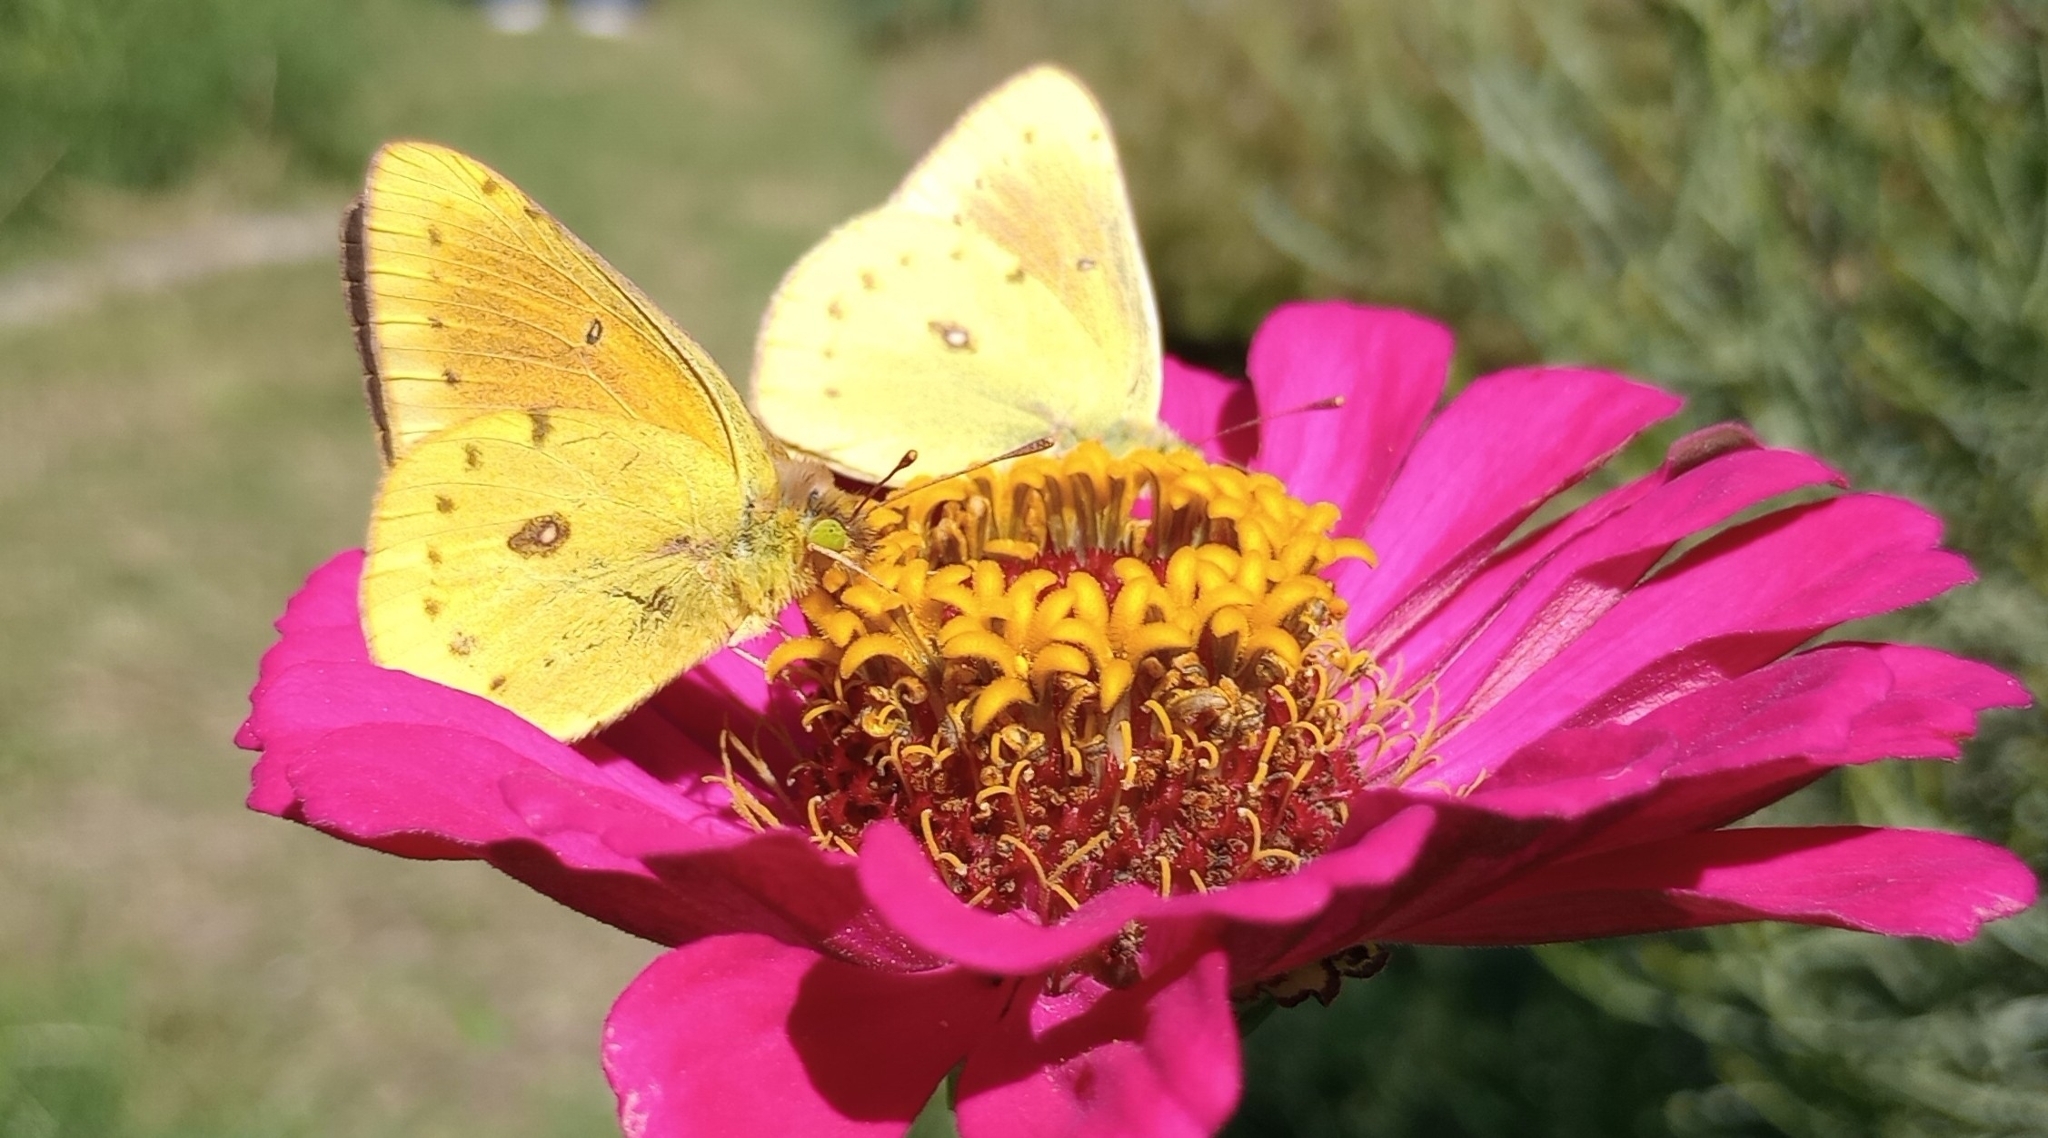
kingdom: Animalia
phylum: Arthropoda
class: Insecta
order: Lepidoptera
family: Pieridae
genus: Colias
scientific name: Colias lesbia
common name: Lesbia clouded yellow
